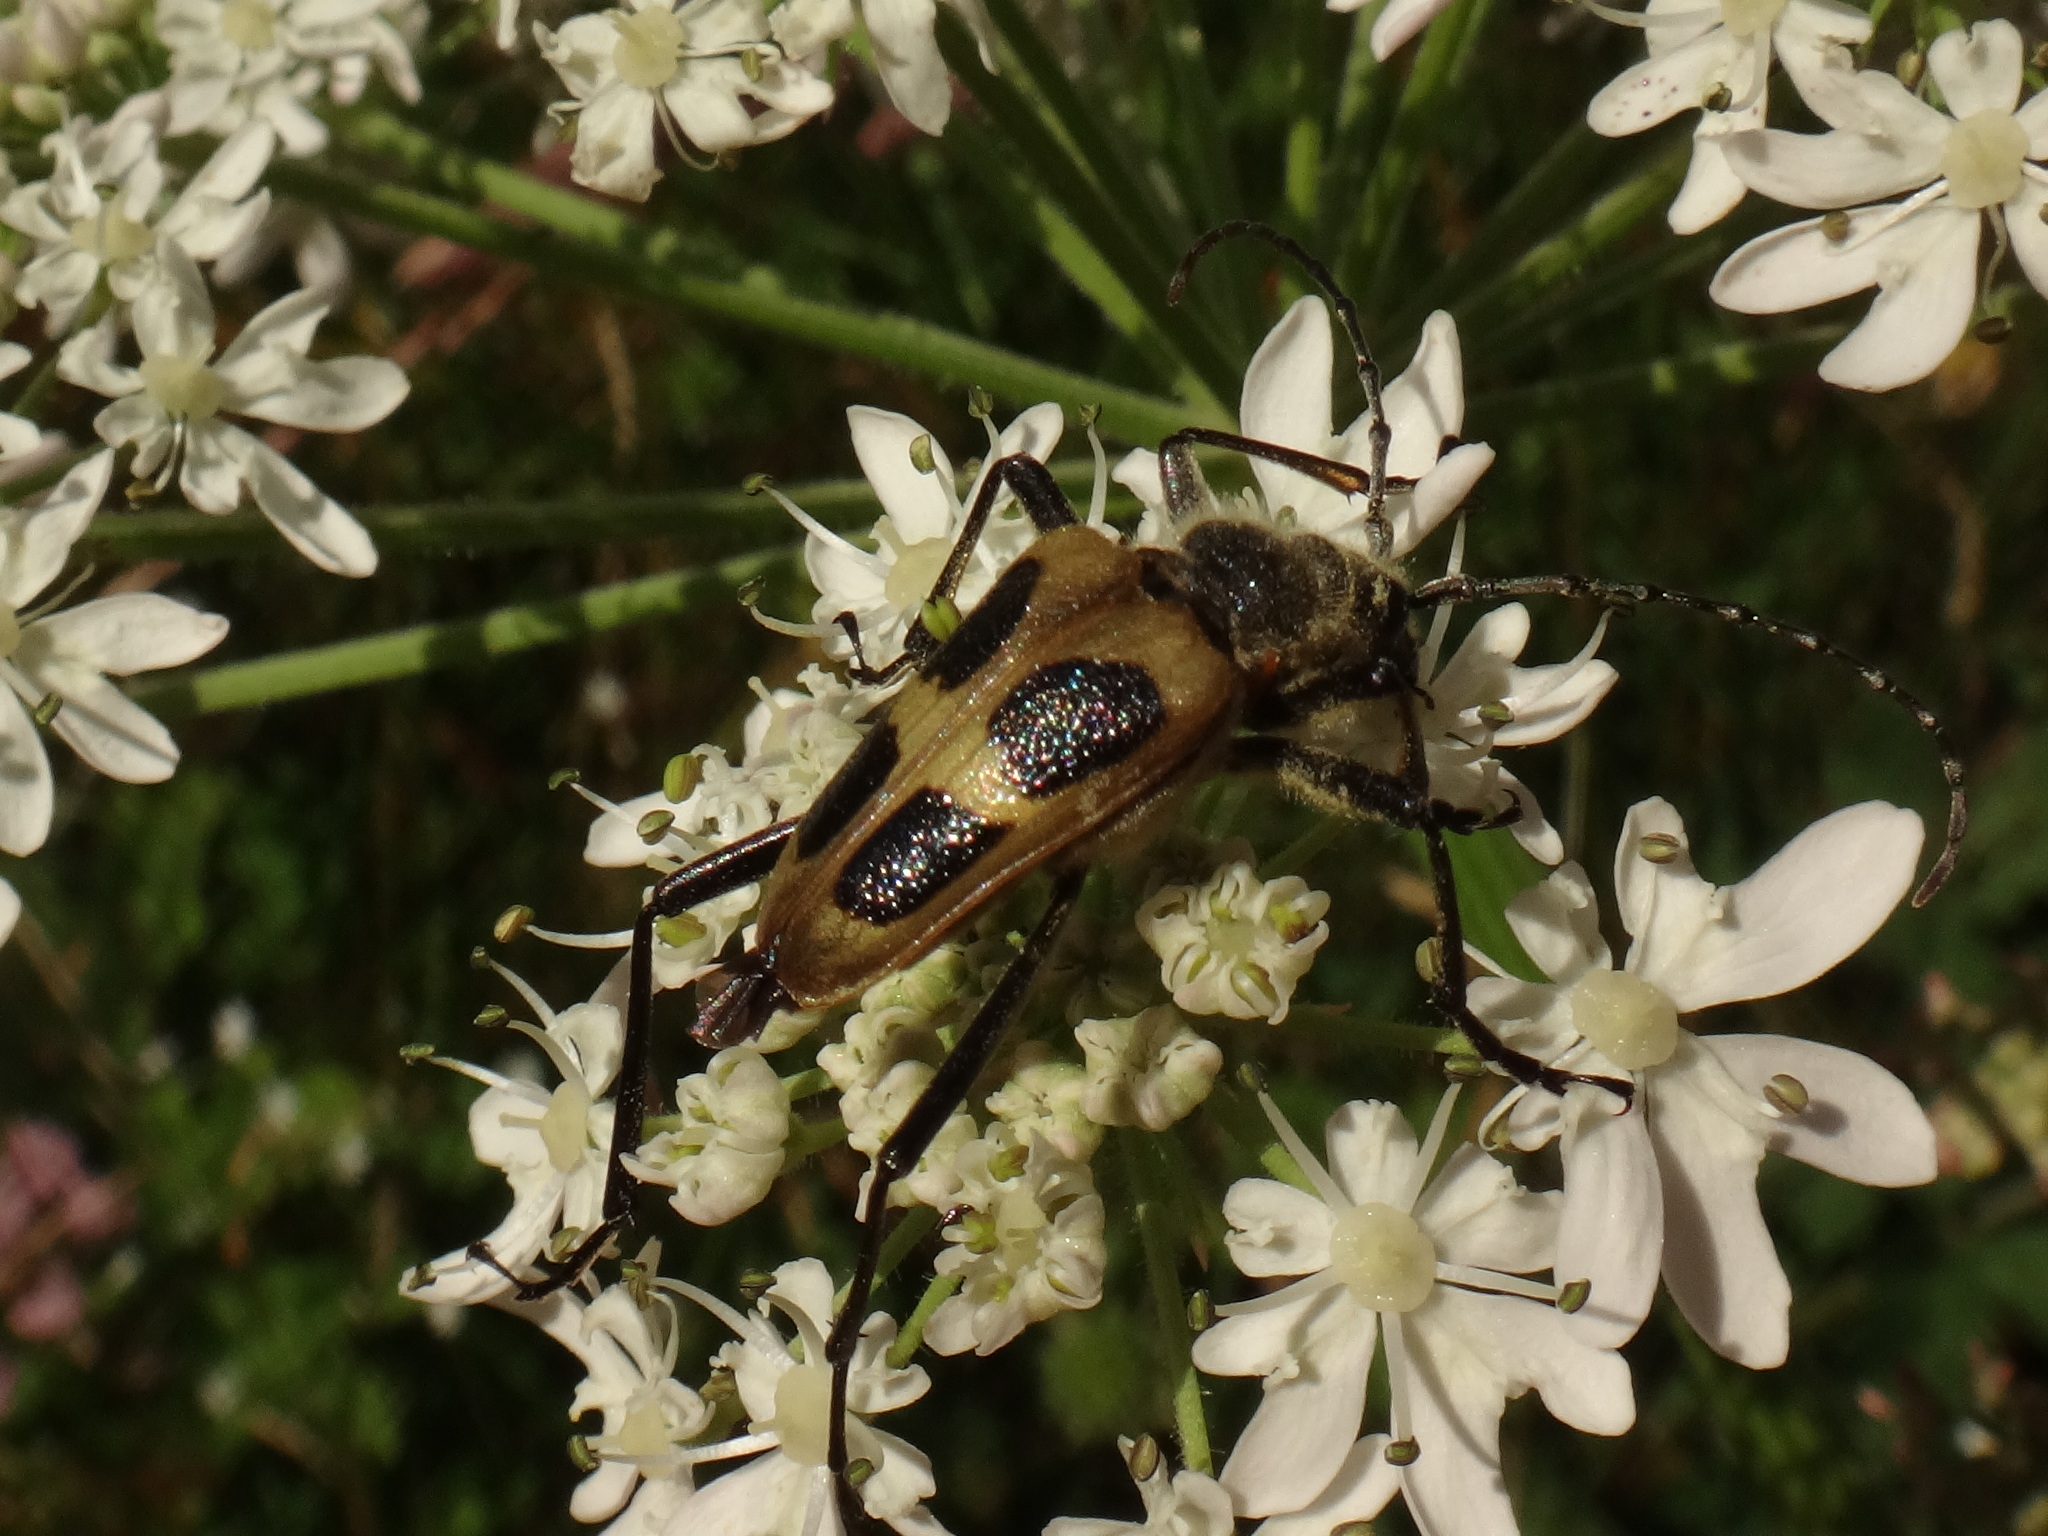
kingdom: Animalia
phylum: Arthropoda
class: Insecta
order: Coleoptera
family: Cerambycidae
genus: Pachyta
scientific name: Pachyta quadrimaculata
